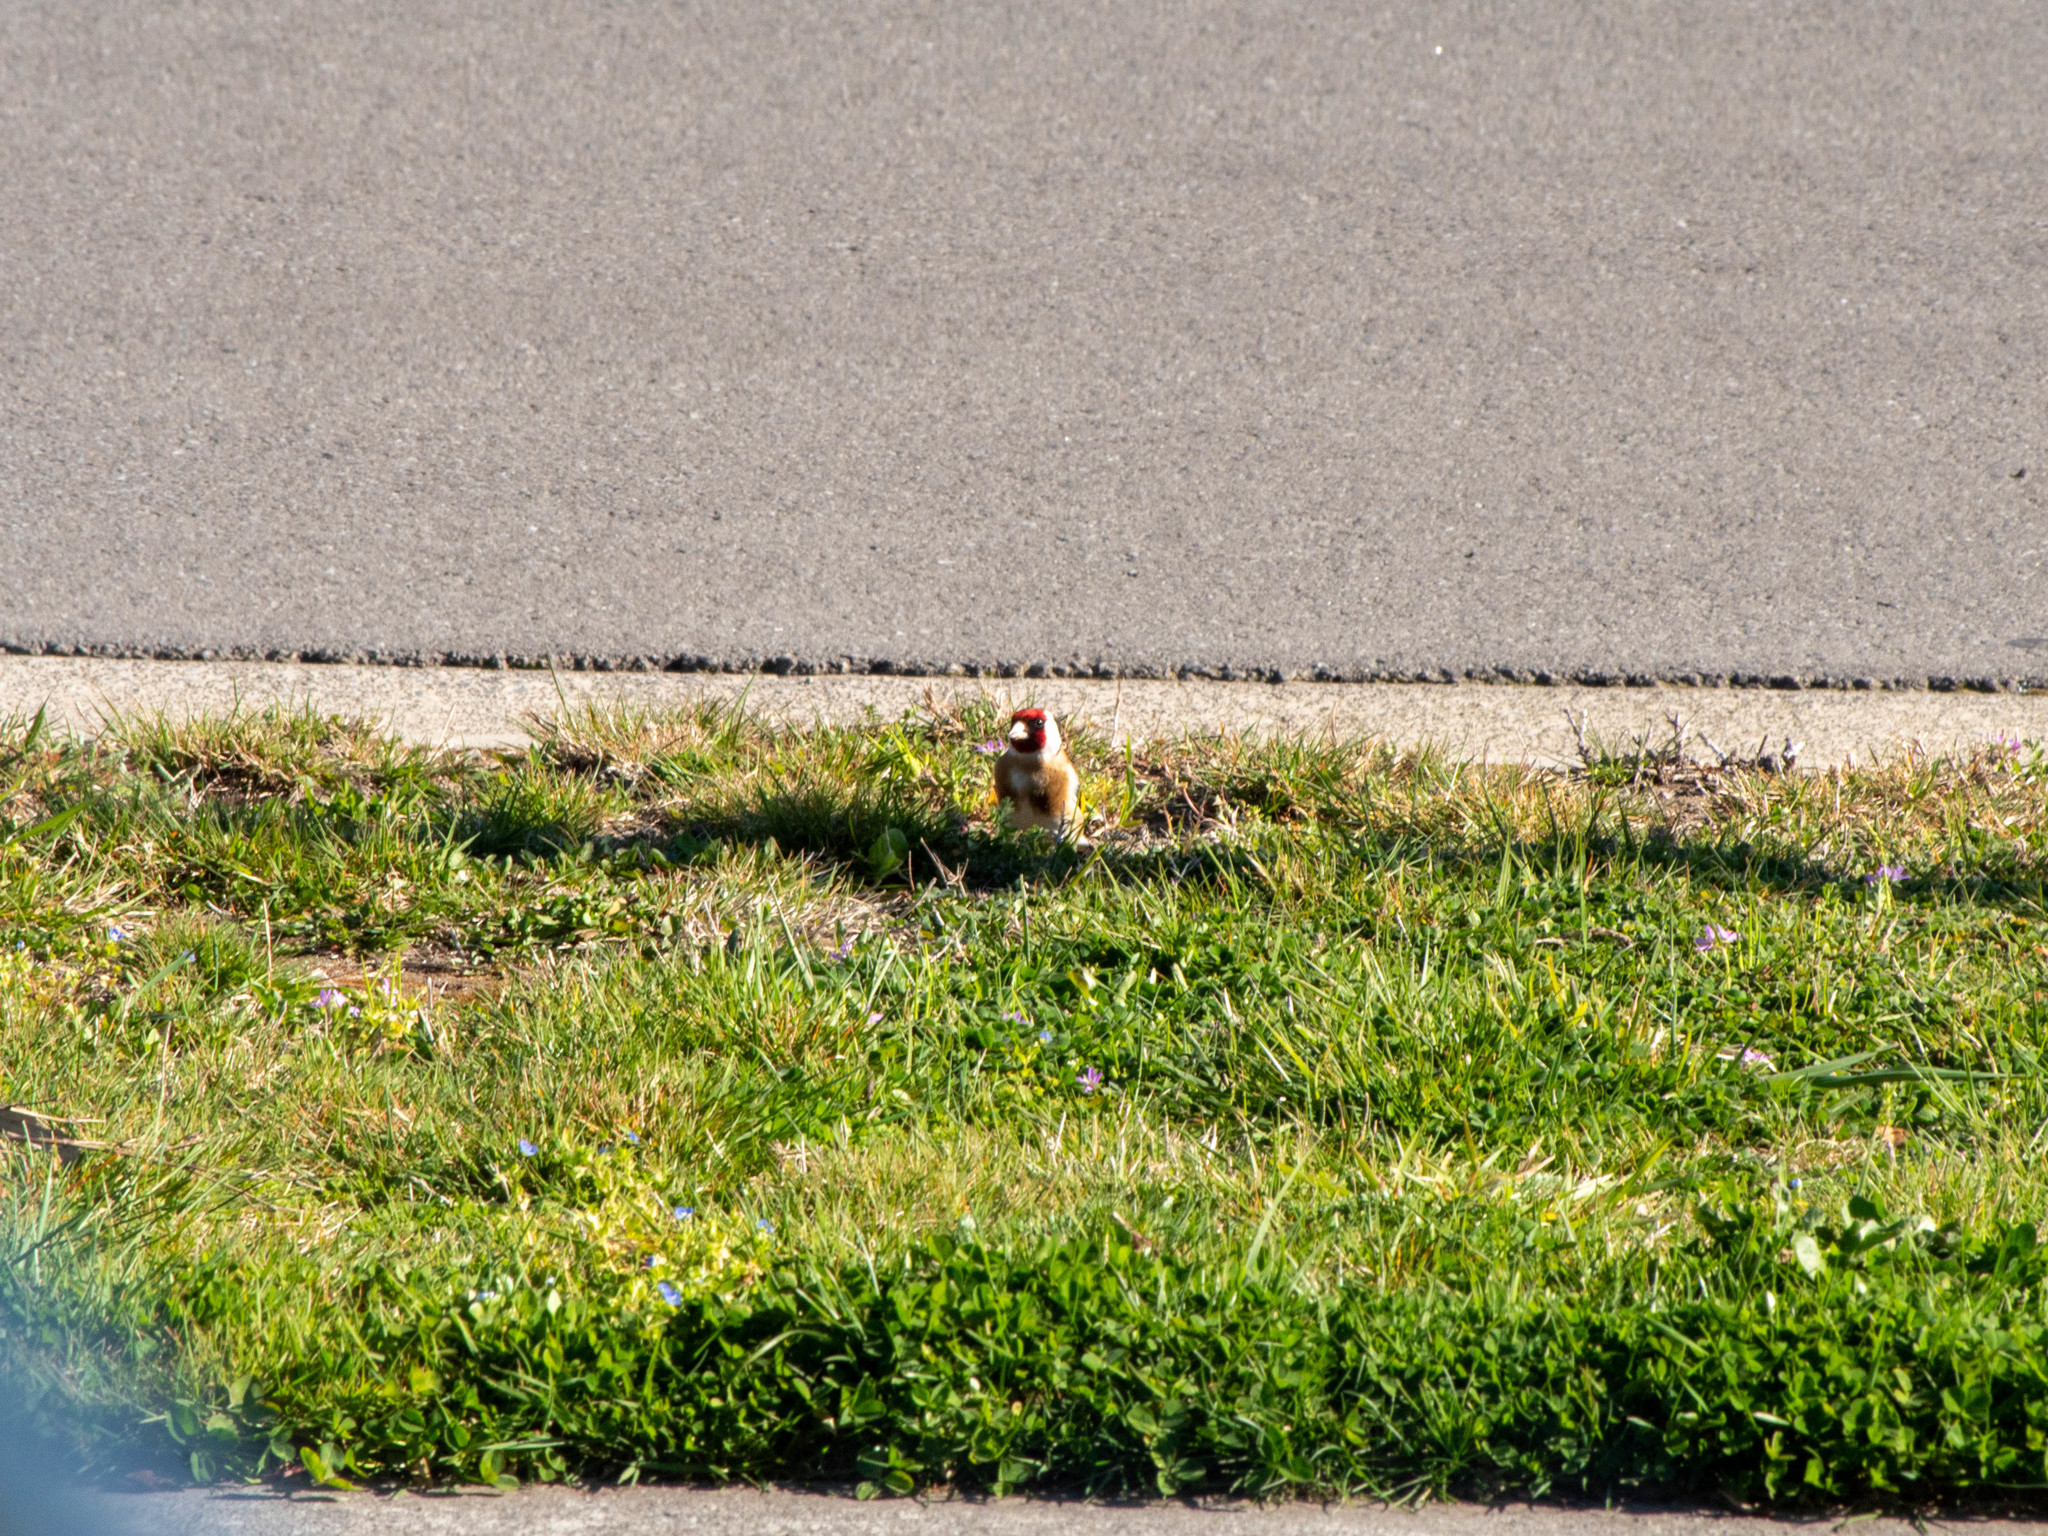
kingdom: Animalia
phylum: Chordata
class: Aves
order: Passeriformes
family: Fringillidae
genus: Carduelis
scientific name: Carduelis carduelis
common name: European goldfinch
